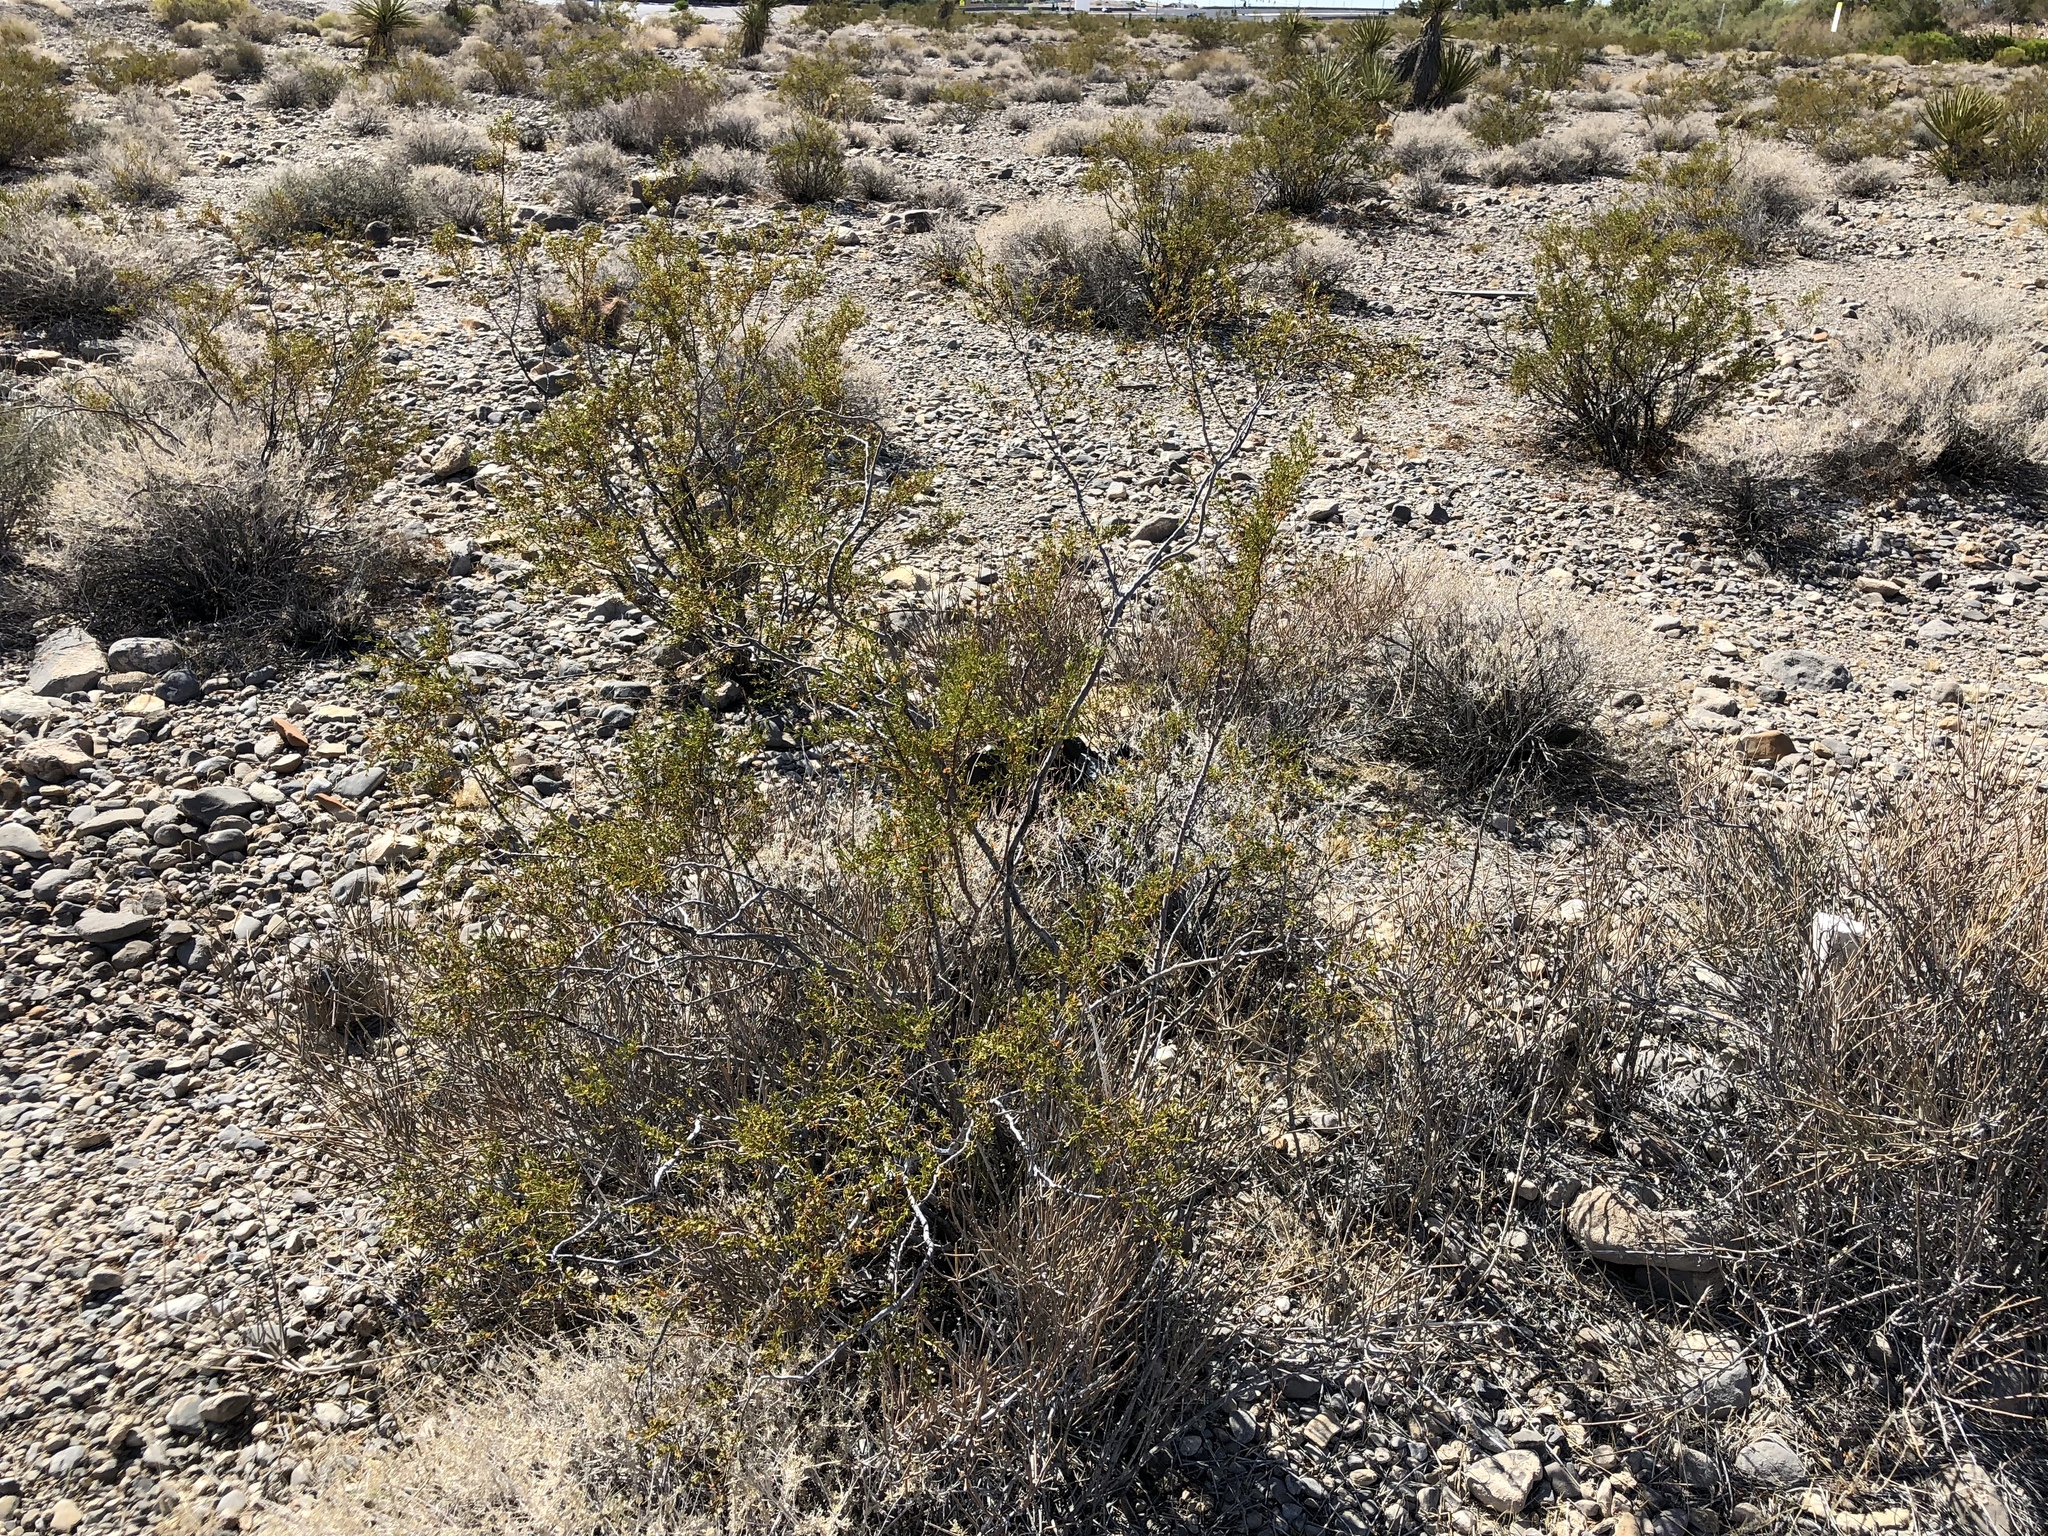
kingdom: Plantae
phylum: Tracheophyta
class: Magnoliopsida
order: Zygophyllales
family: Zygophyllaceae
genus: Larrea
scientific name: Larrea tridentata
